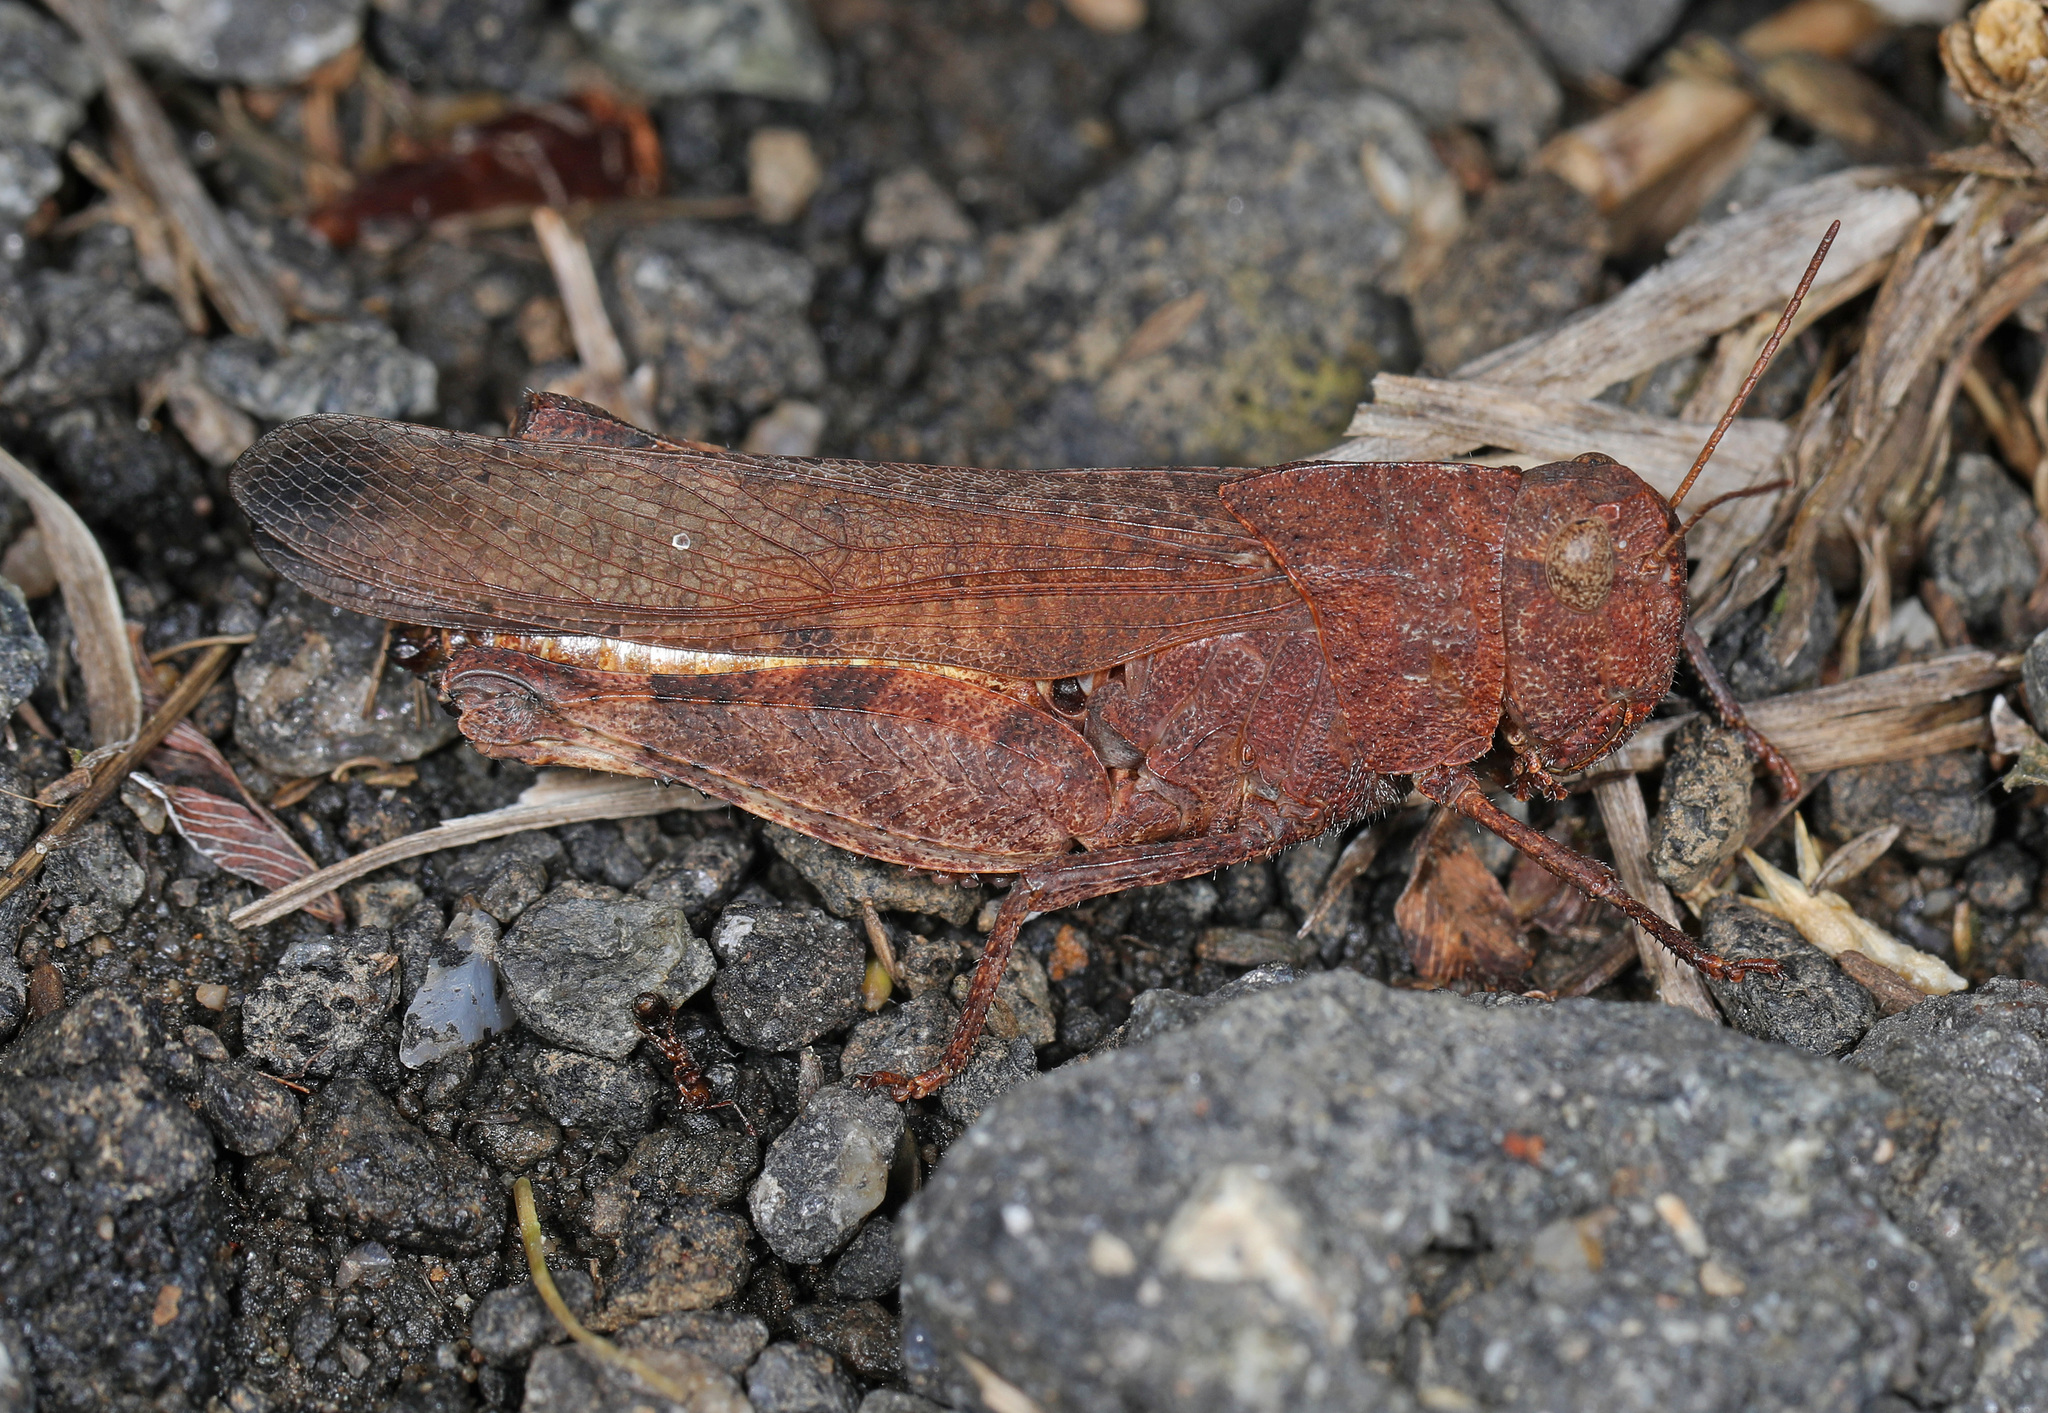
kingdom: Animalia
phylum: Arthropoda
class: Insecta
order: Orthoptera
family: Acrididae
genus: Arphia
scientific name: Arphia sulphurea
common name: Spring yellow-winged locust
